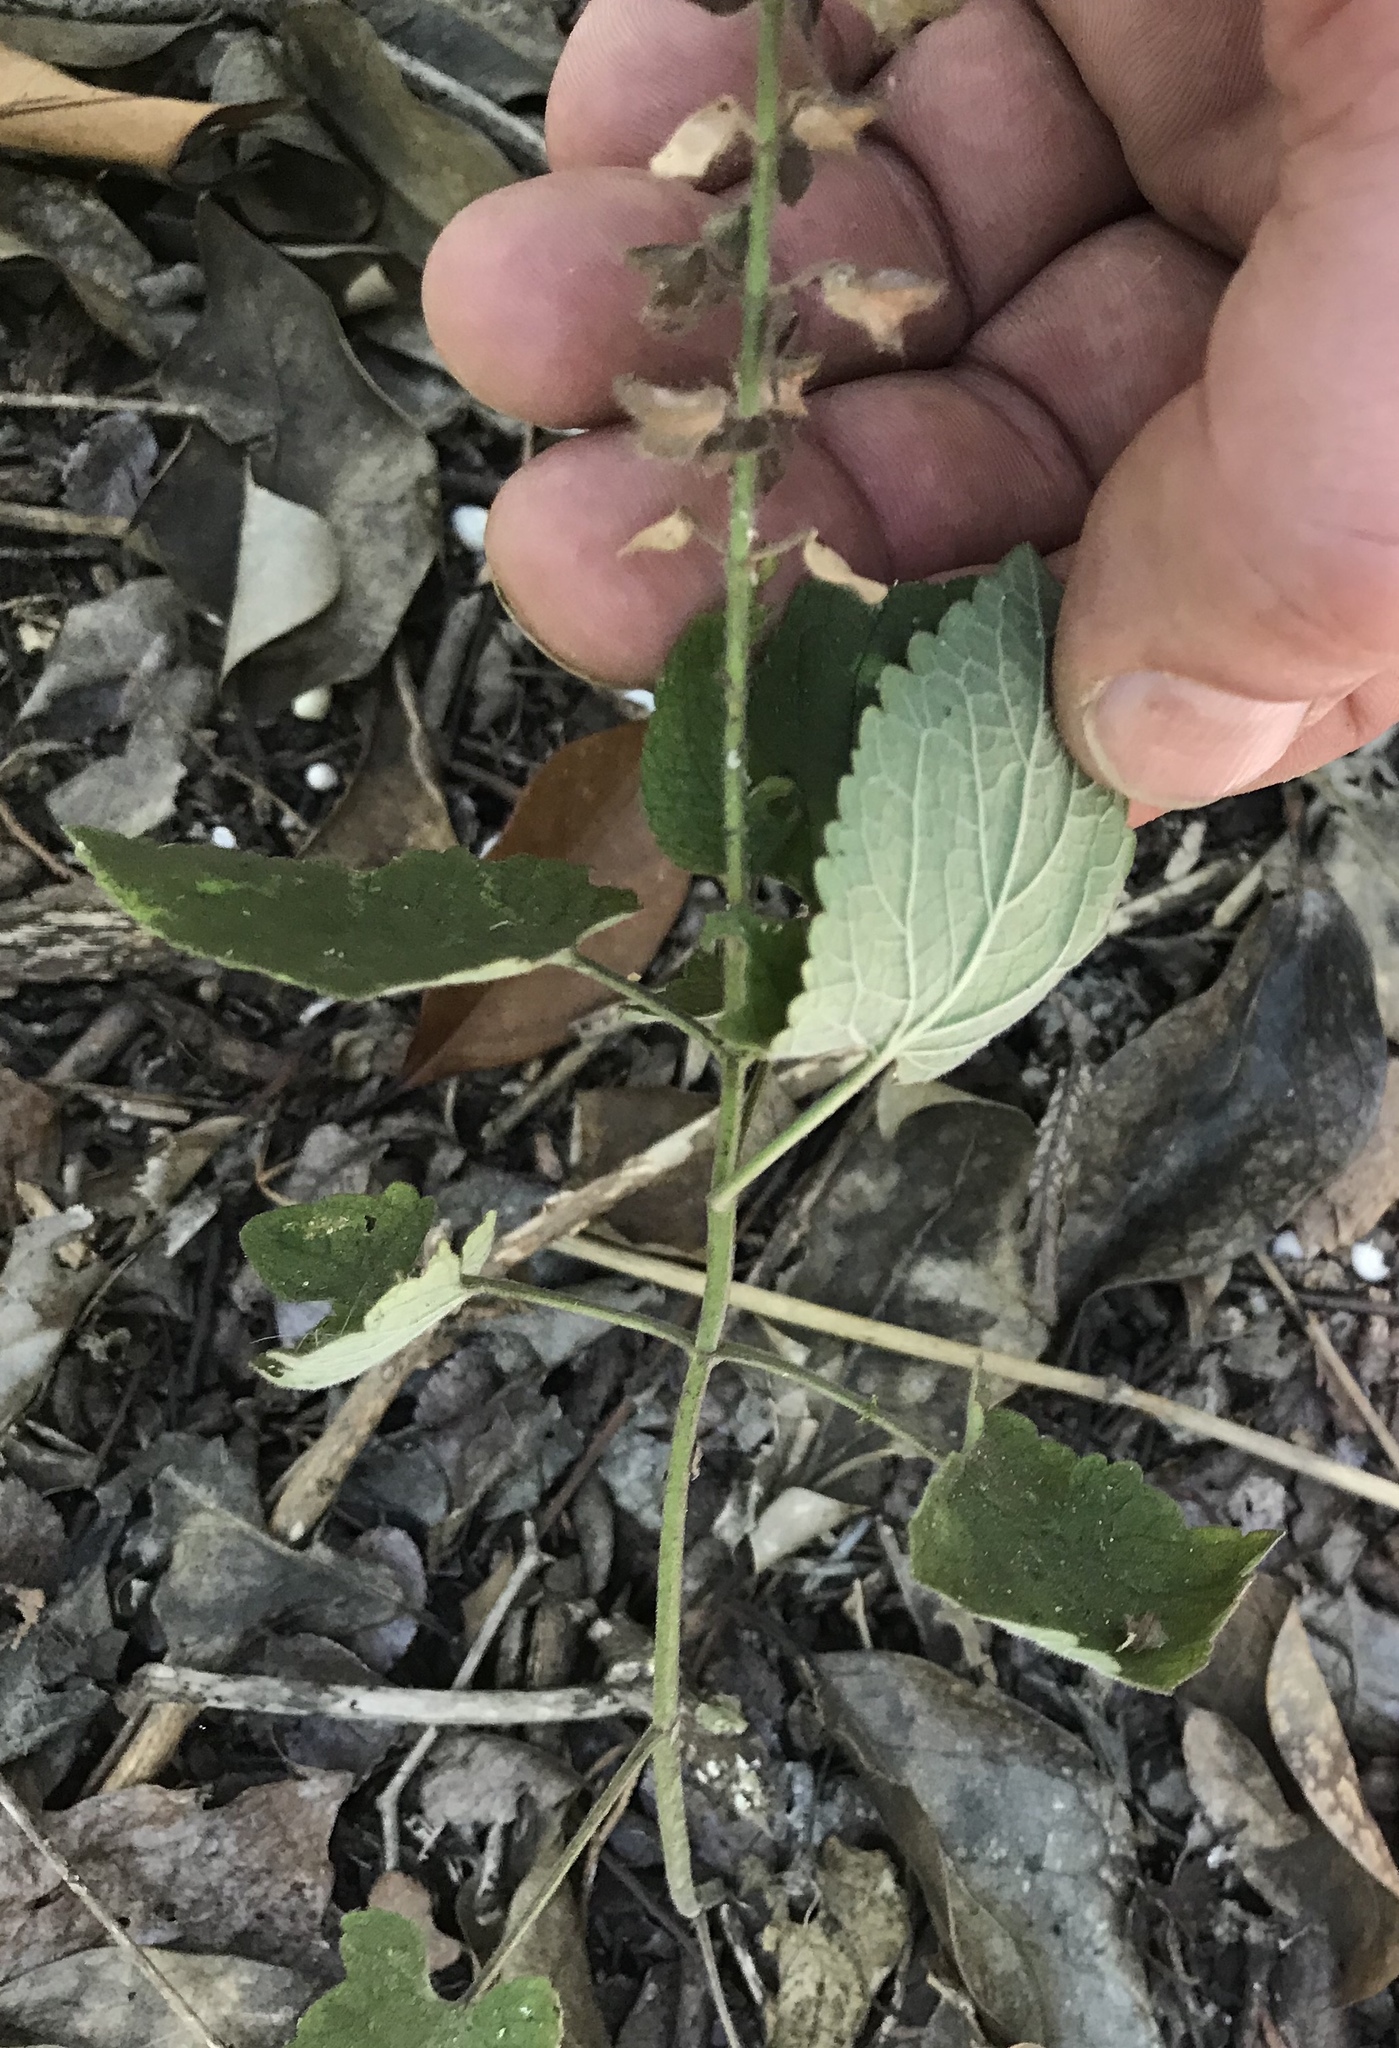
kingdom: Plantae
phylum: Tracheophyta
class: Magnoliopsida
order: Lamiales
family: Lamiaceae
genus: Scutellaria
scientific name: Scutellaria ovata
